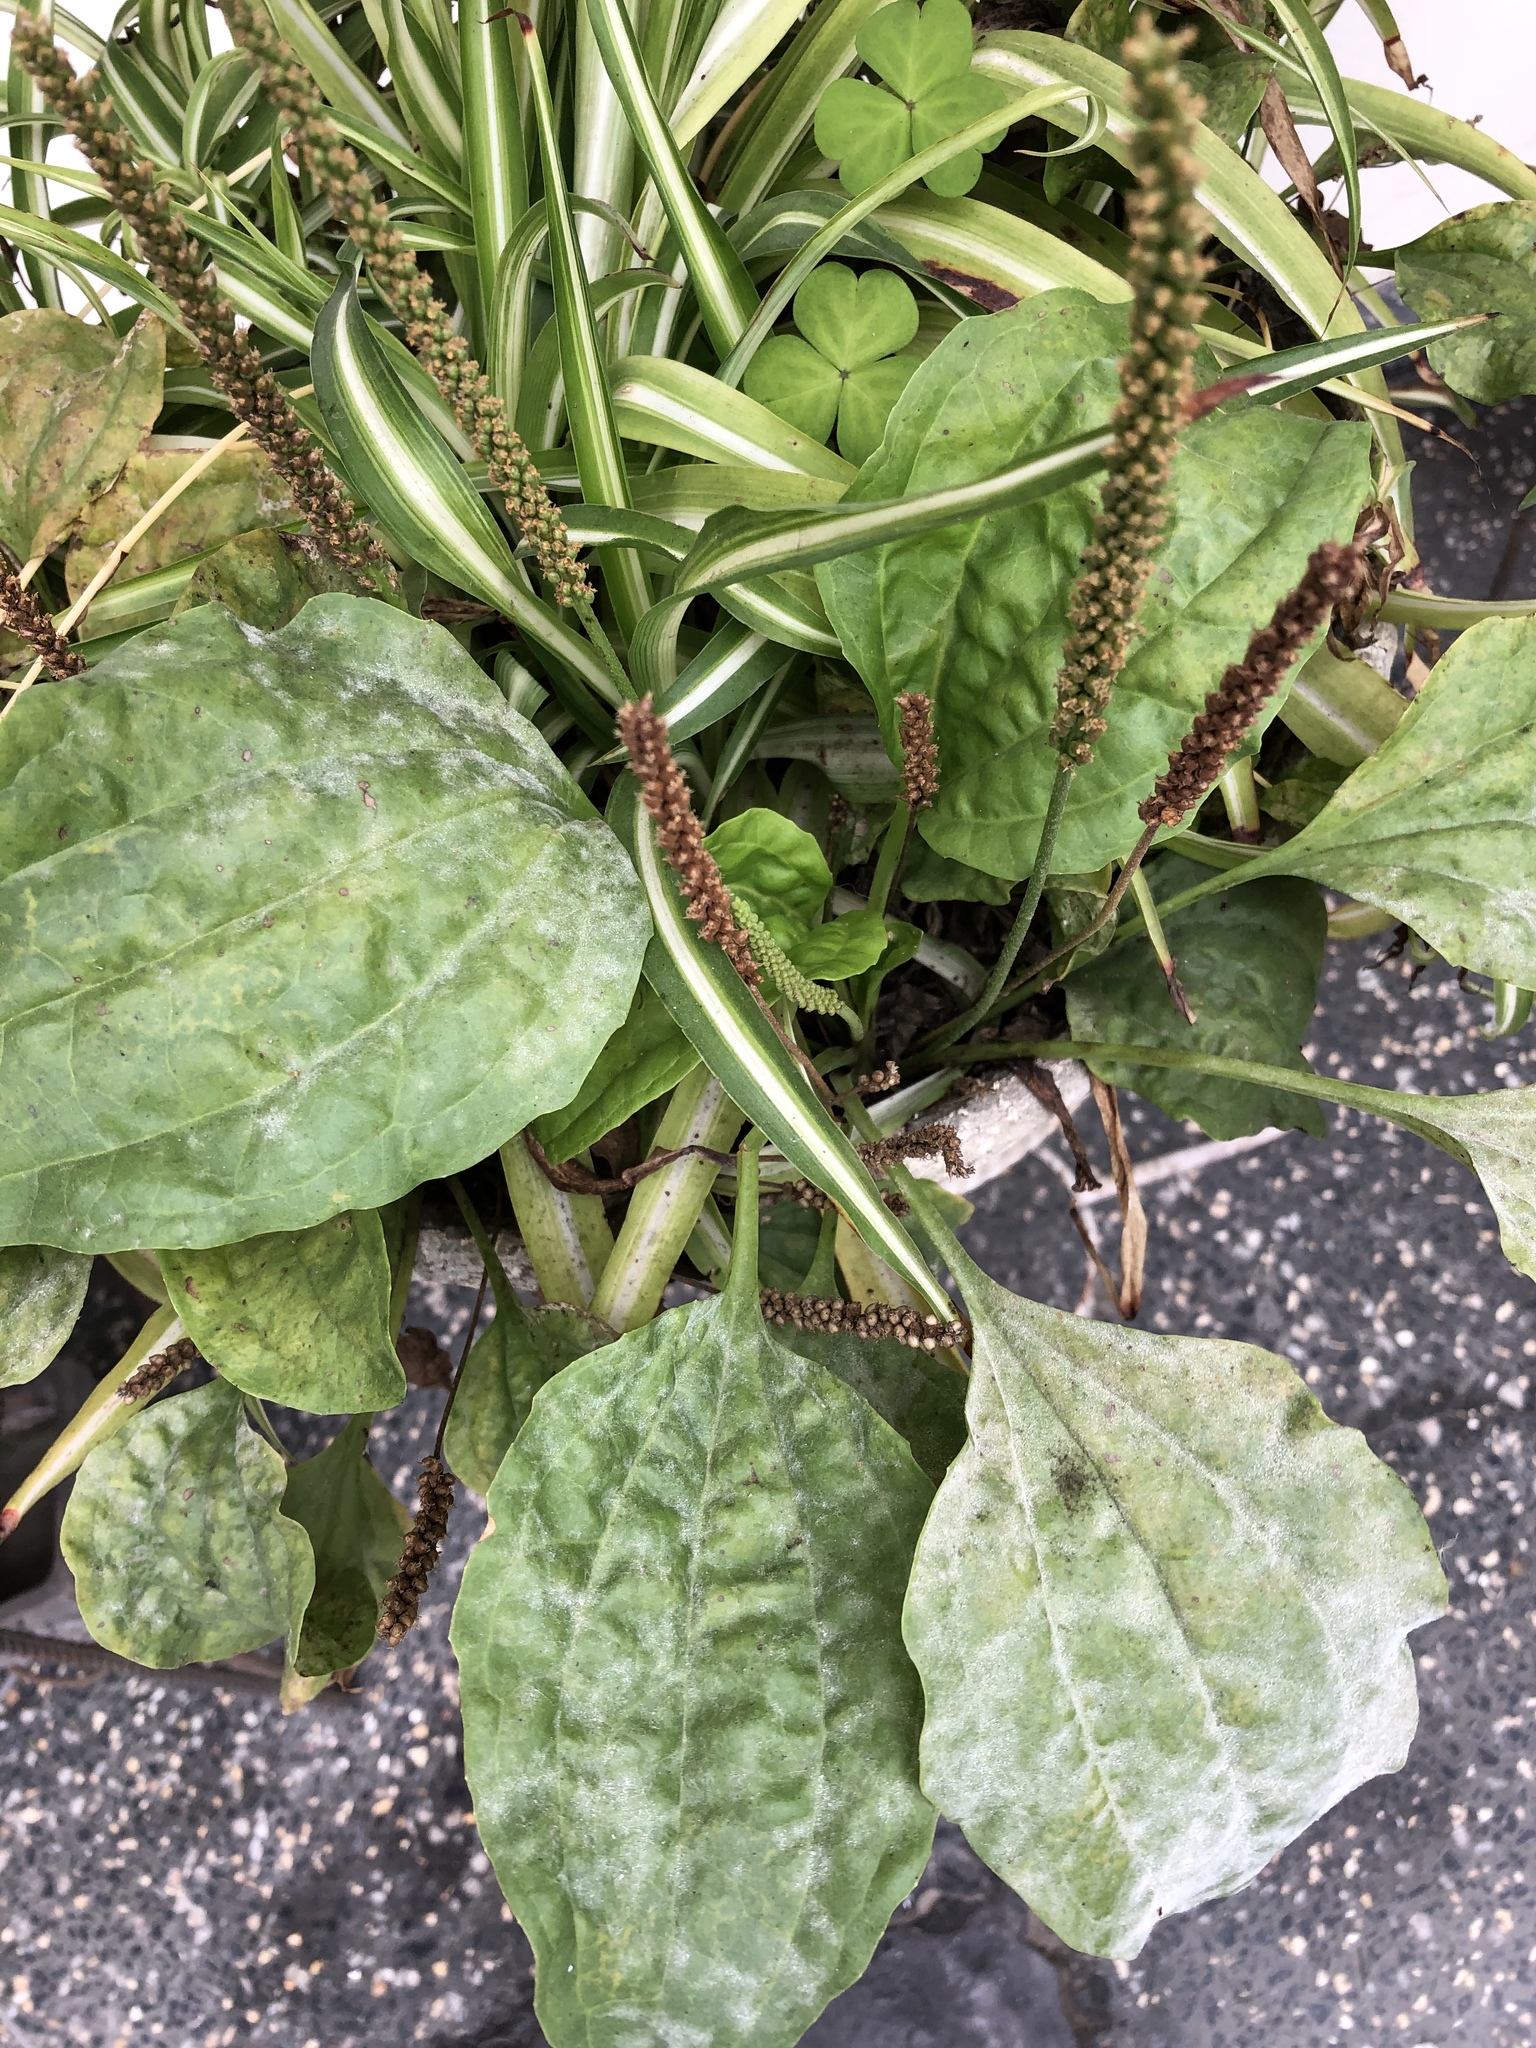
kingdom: Plantae
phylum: Tracheophyta
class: Magnoliopsida
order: Lamiales
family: Plantaginaceae
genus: Plantago
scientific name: Plantago major
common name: Common plantain
